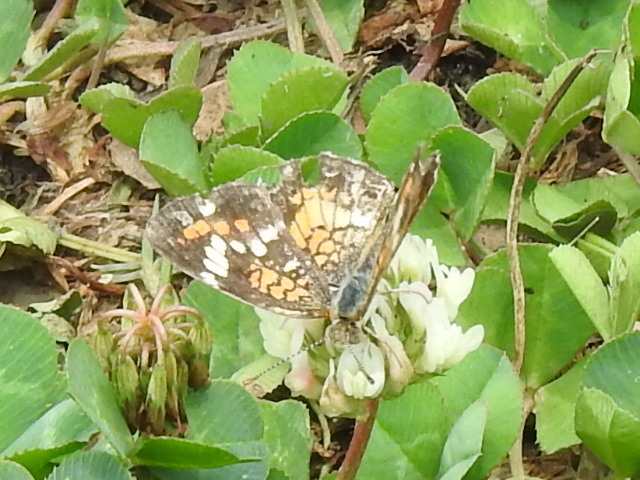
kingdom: Animalia
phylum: Arthropoda
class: Insecta
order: Lepidoptera
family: Nymphalidae
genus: Phyciodes
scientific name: Phyciodes phaon
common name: Phaon crescent
